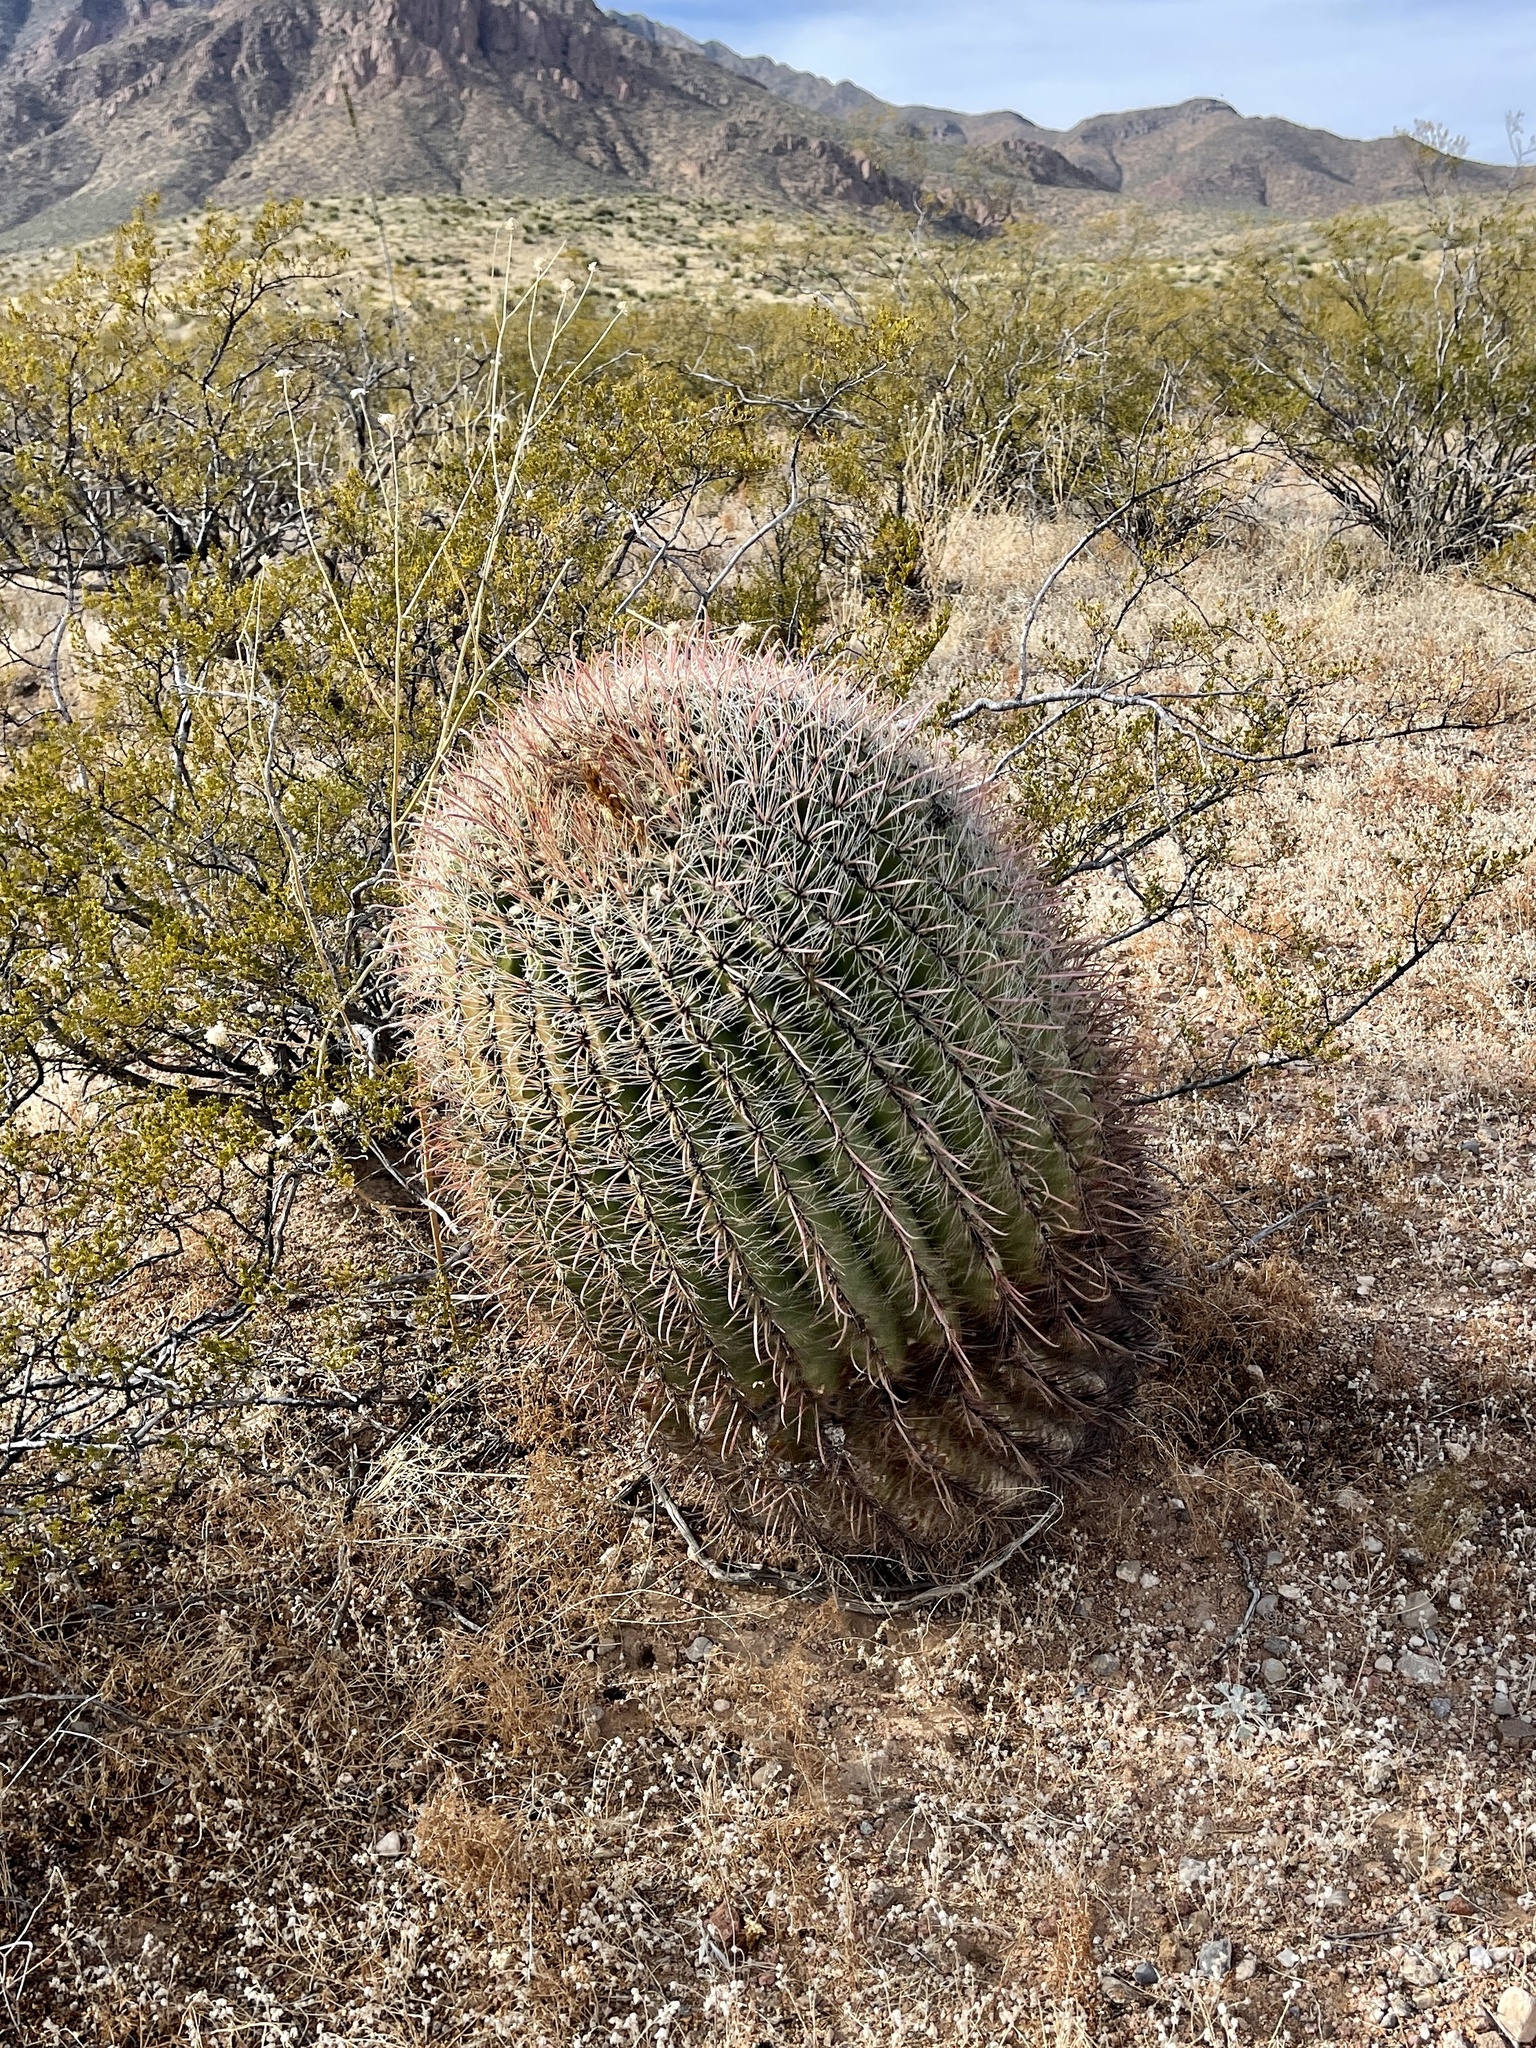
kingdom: Plantae
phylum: Tracheophyta
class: Magnoliopsida
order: Caryophyllales
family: Cactaceae
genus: Ferocactus
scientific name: Ferocactus wislizeni
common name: Candy barrel cactus
